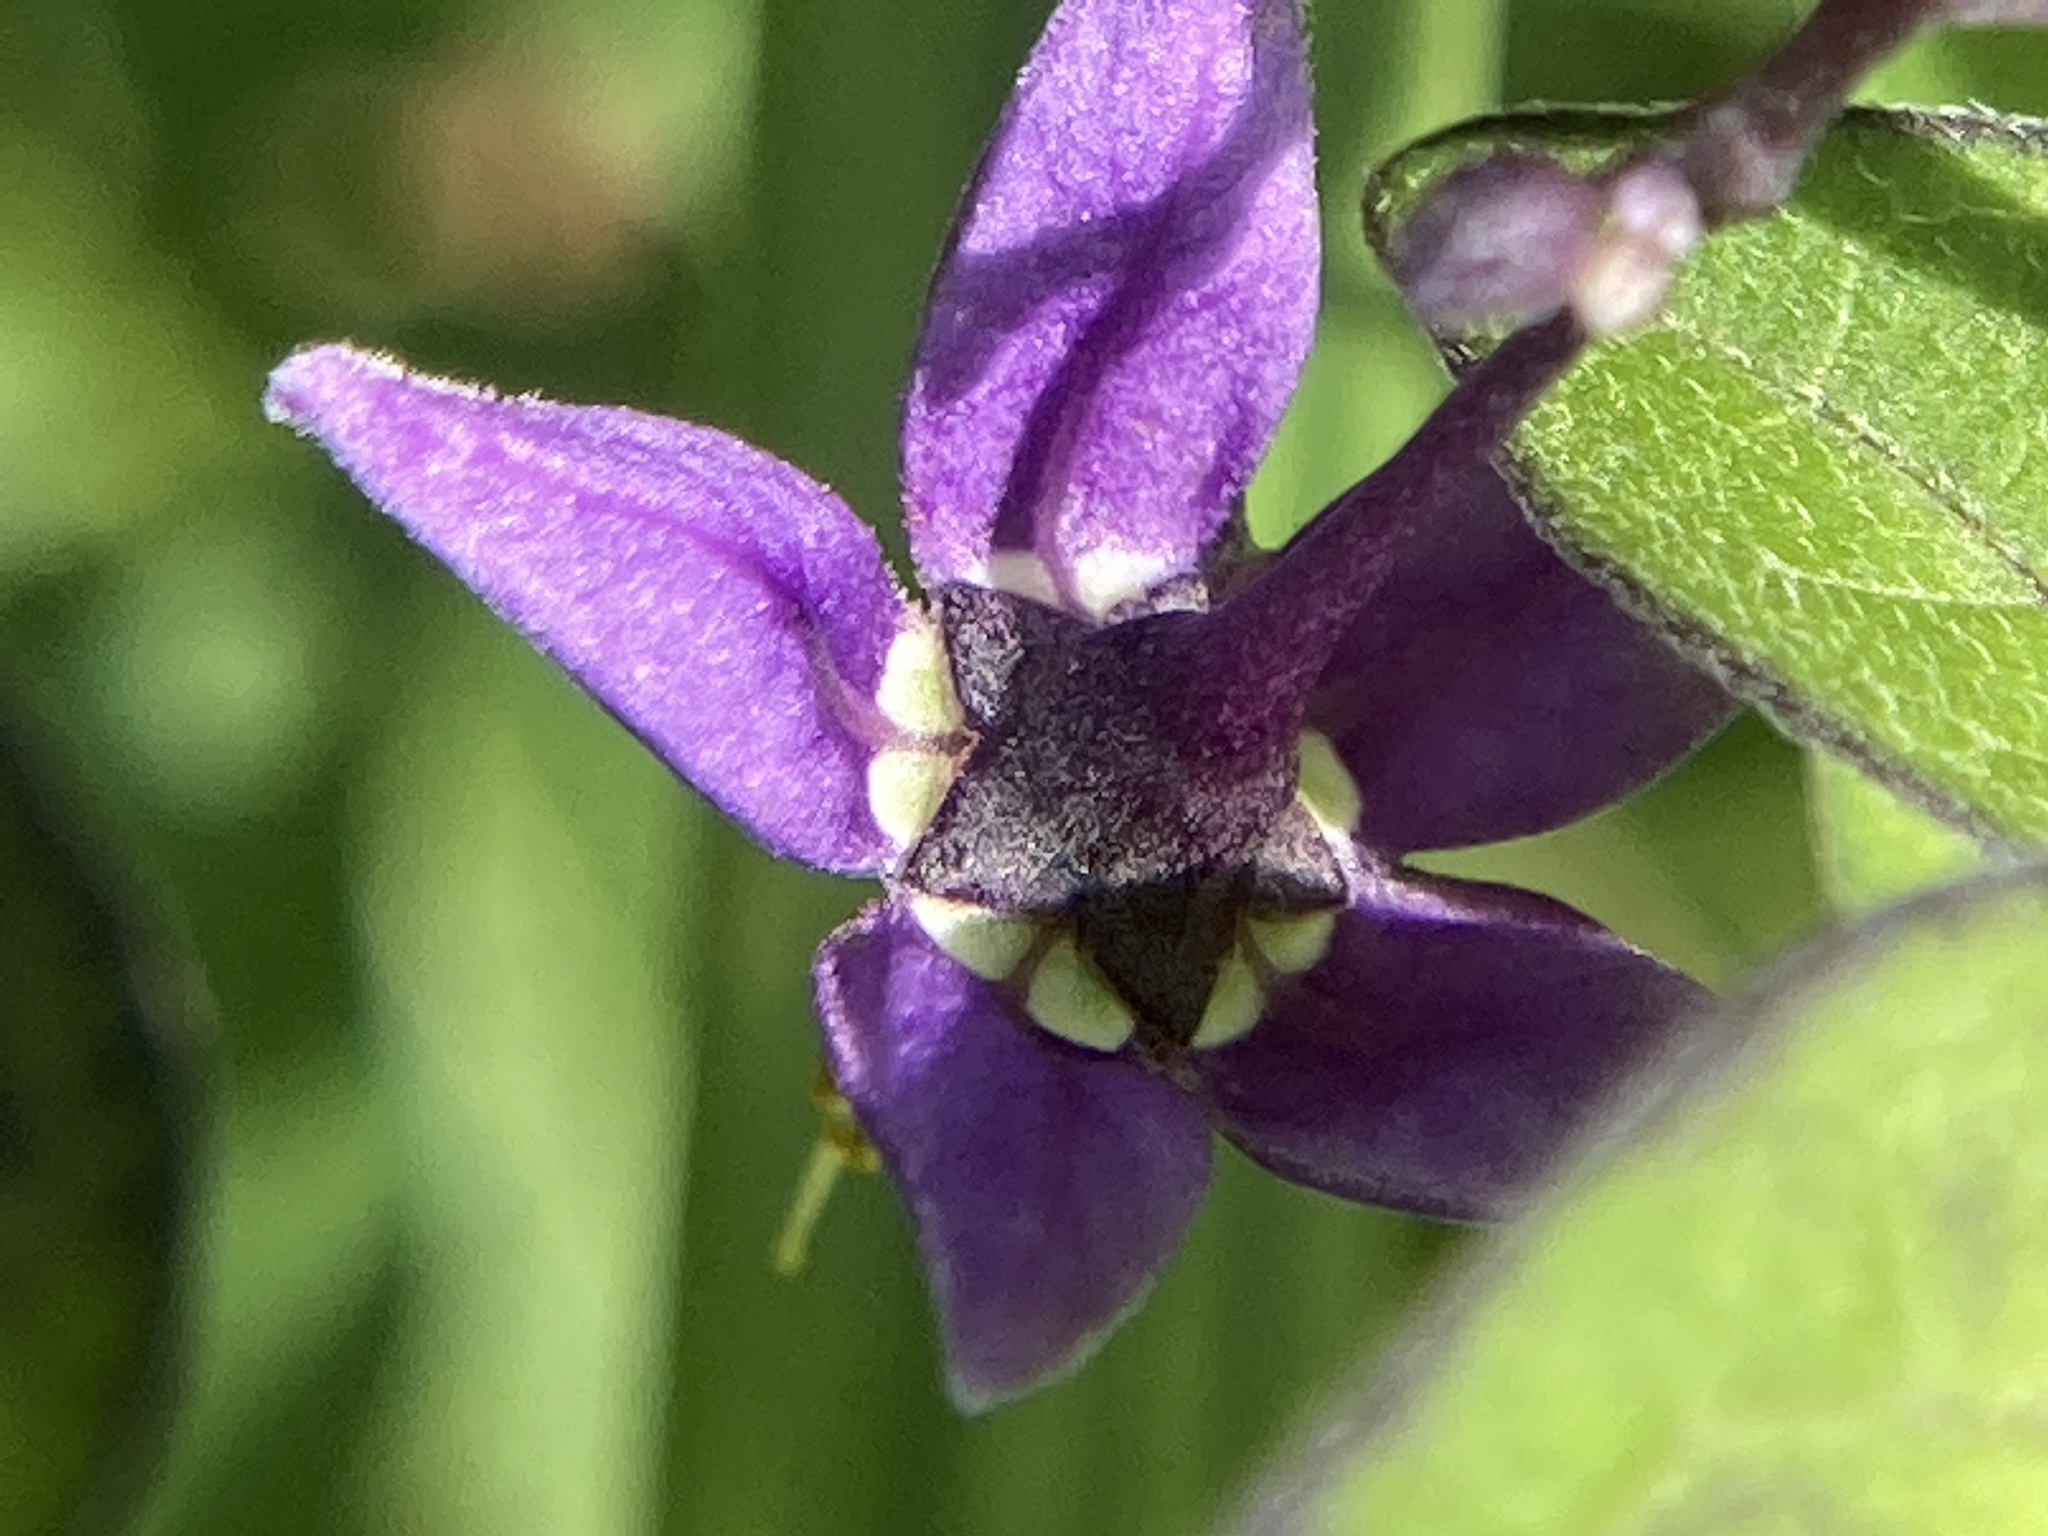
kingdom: Plantae
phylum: Tracheophyta
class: Magnoliopsida
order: Solanales
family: Solanaceae
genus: Solanum
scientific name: Solanum dulcamara
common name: Climbing nightshade
